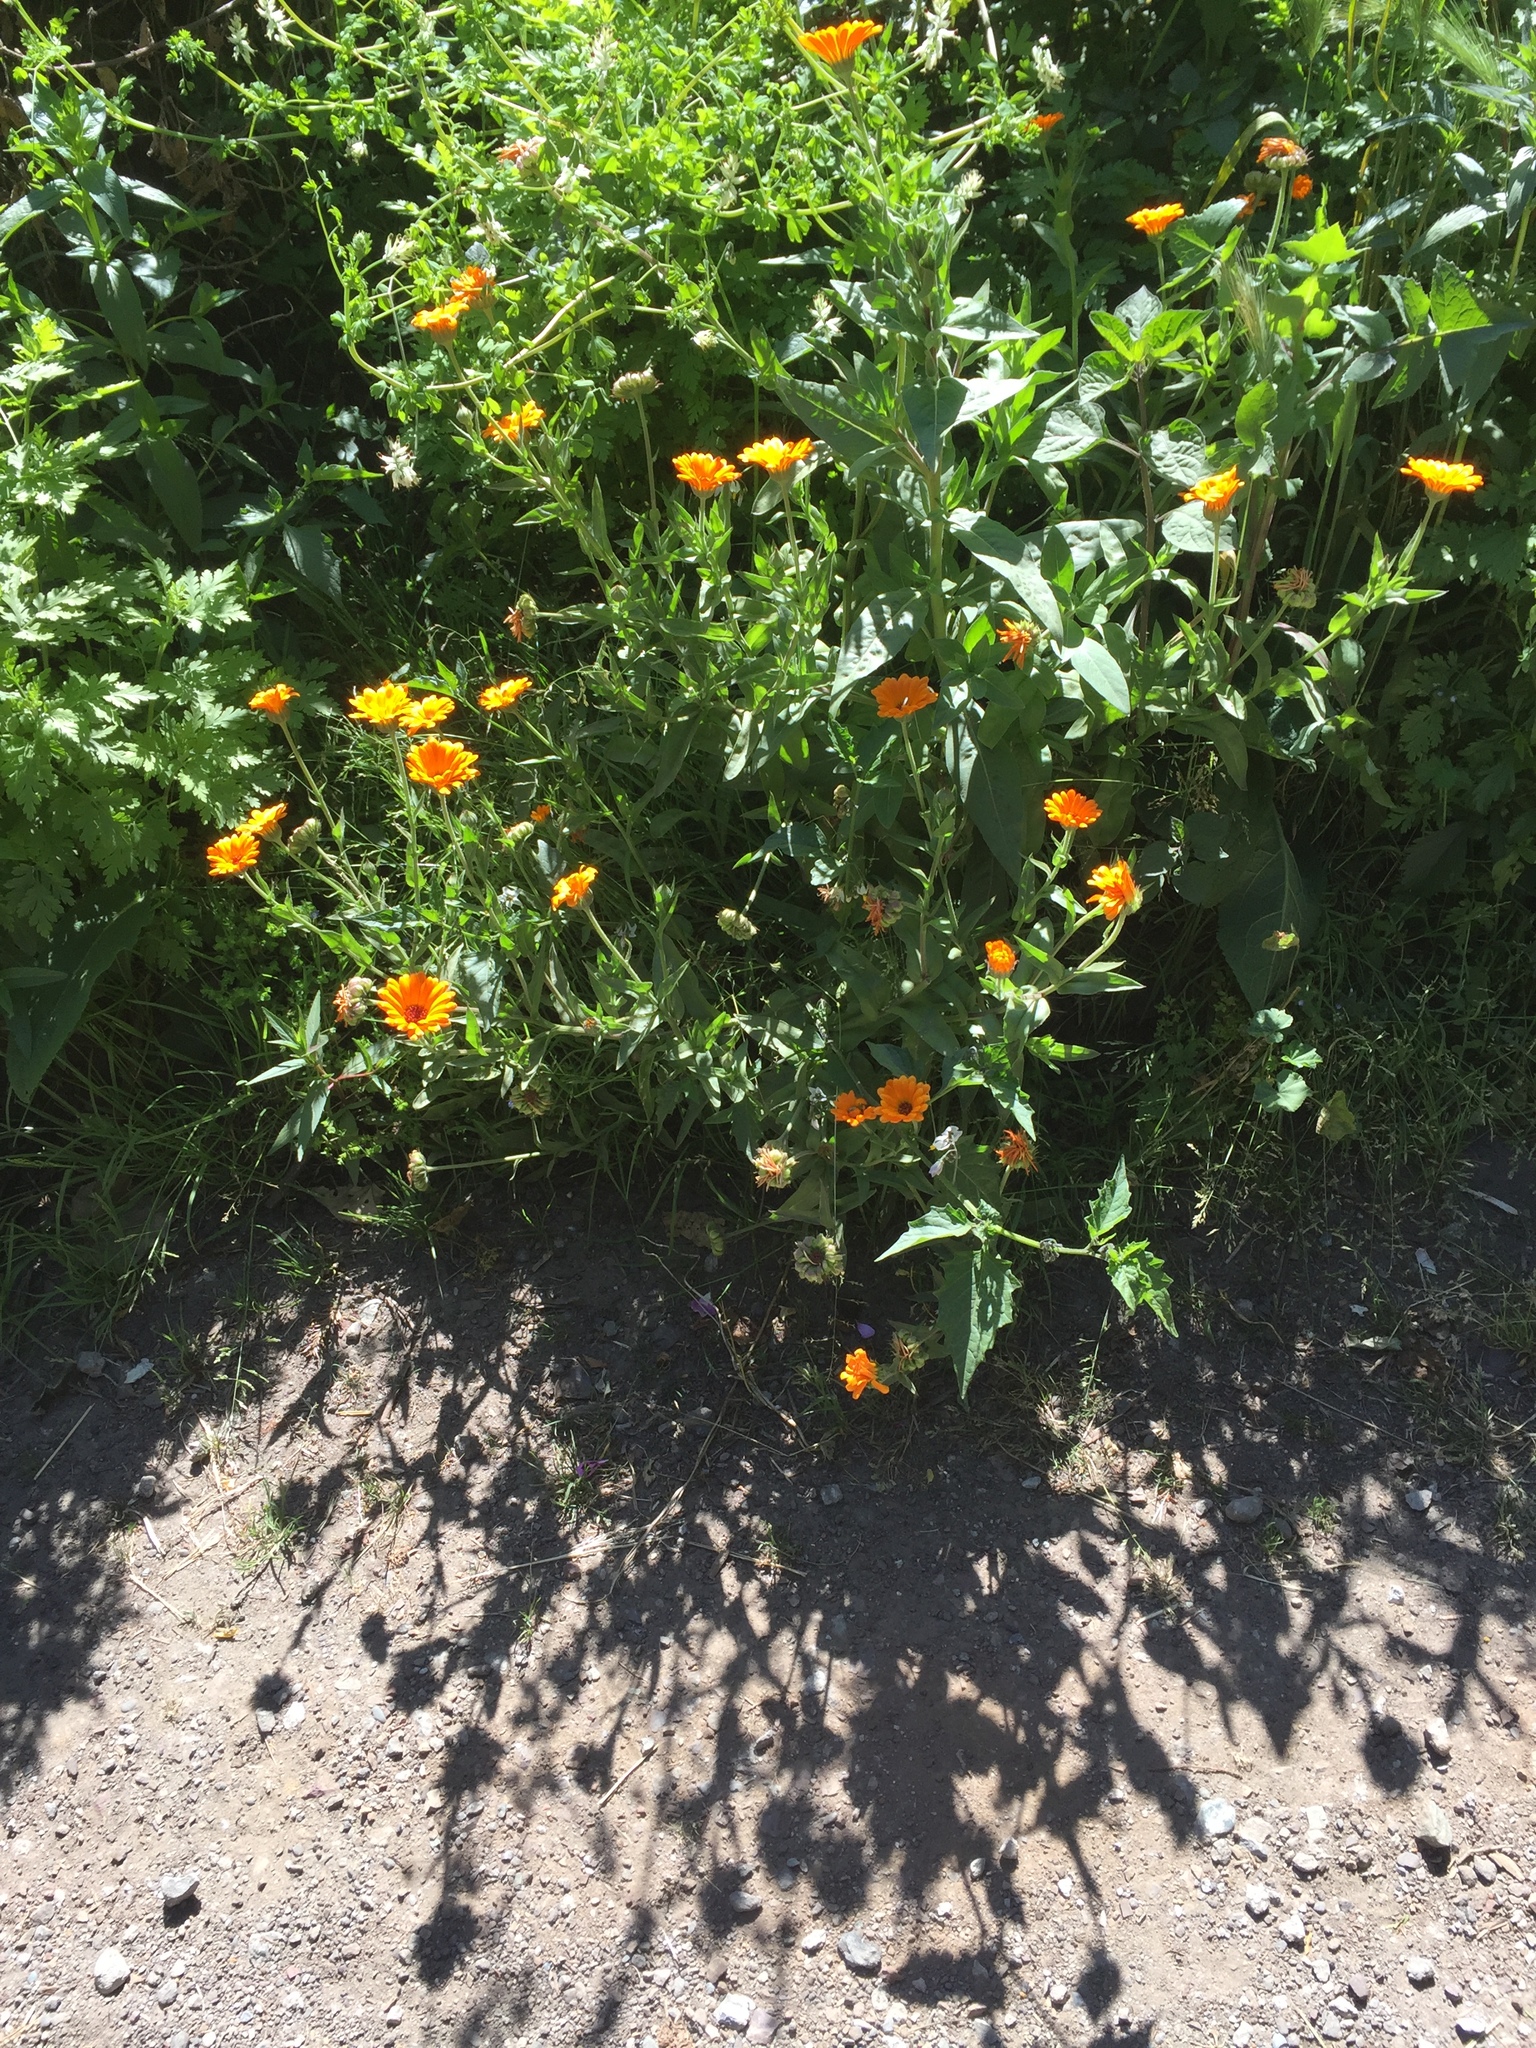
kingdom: Plantae
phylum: Tracheophyta
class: Magnoliopsida
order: Asterales
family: Asteraceae
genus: Calendula
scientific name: Calendula officinalis
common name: Pot marigold
